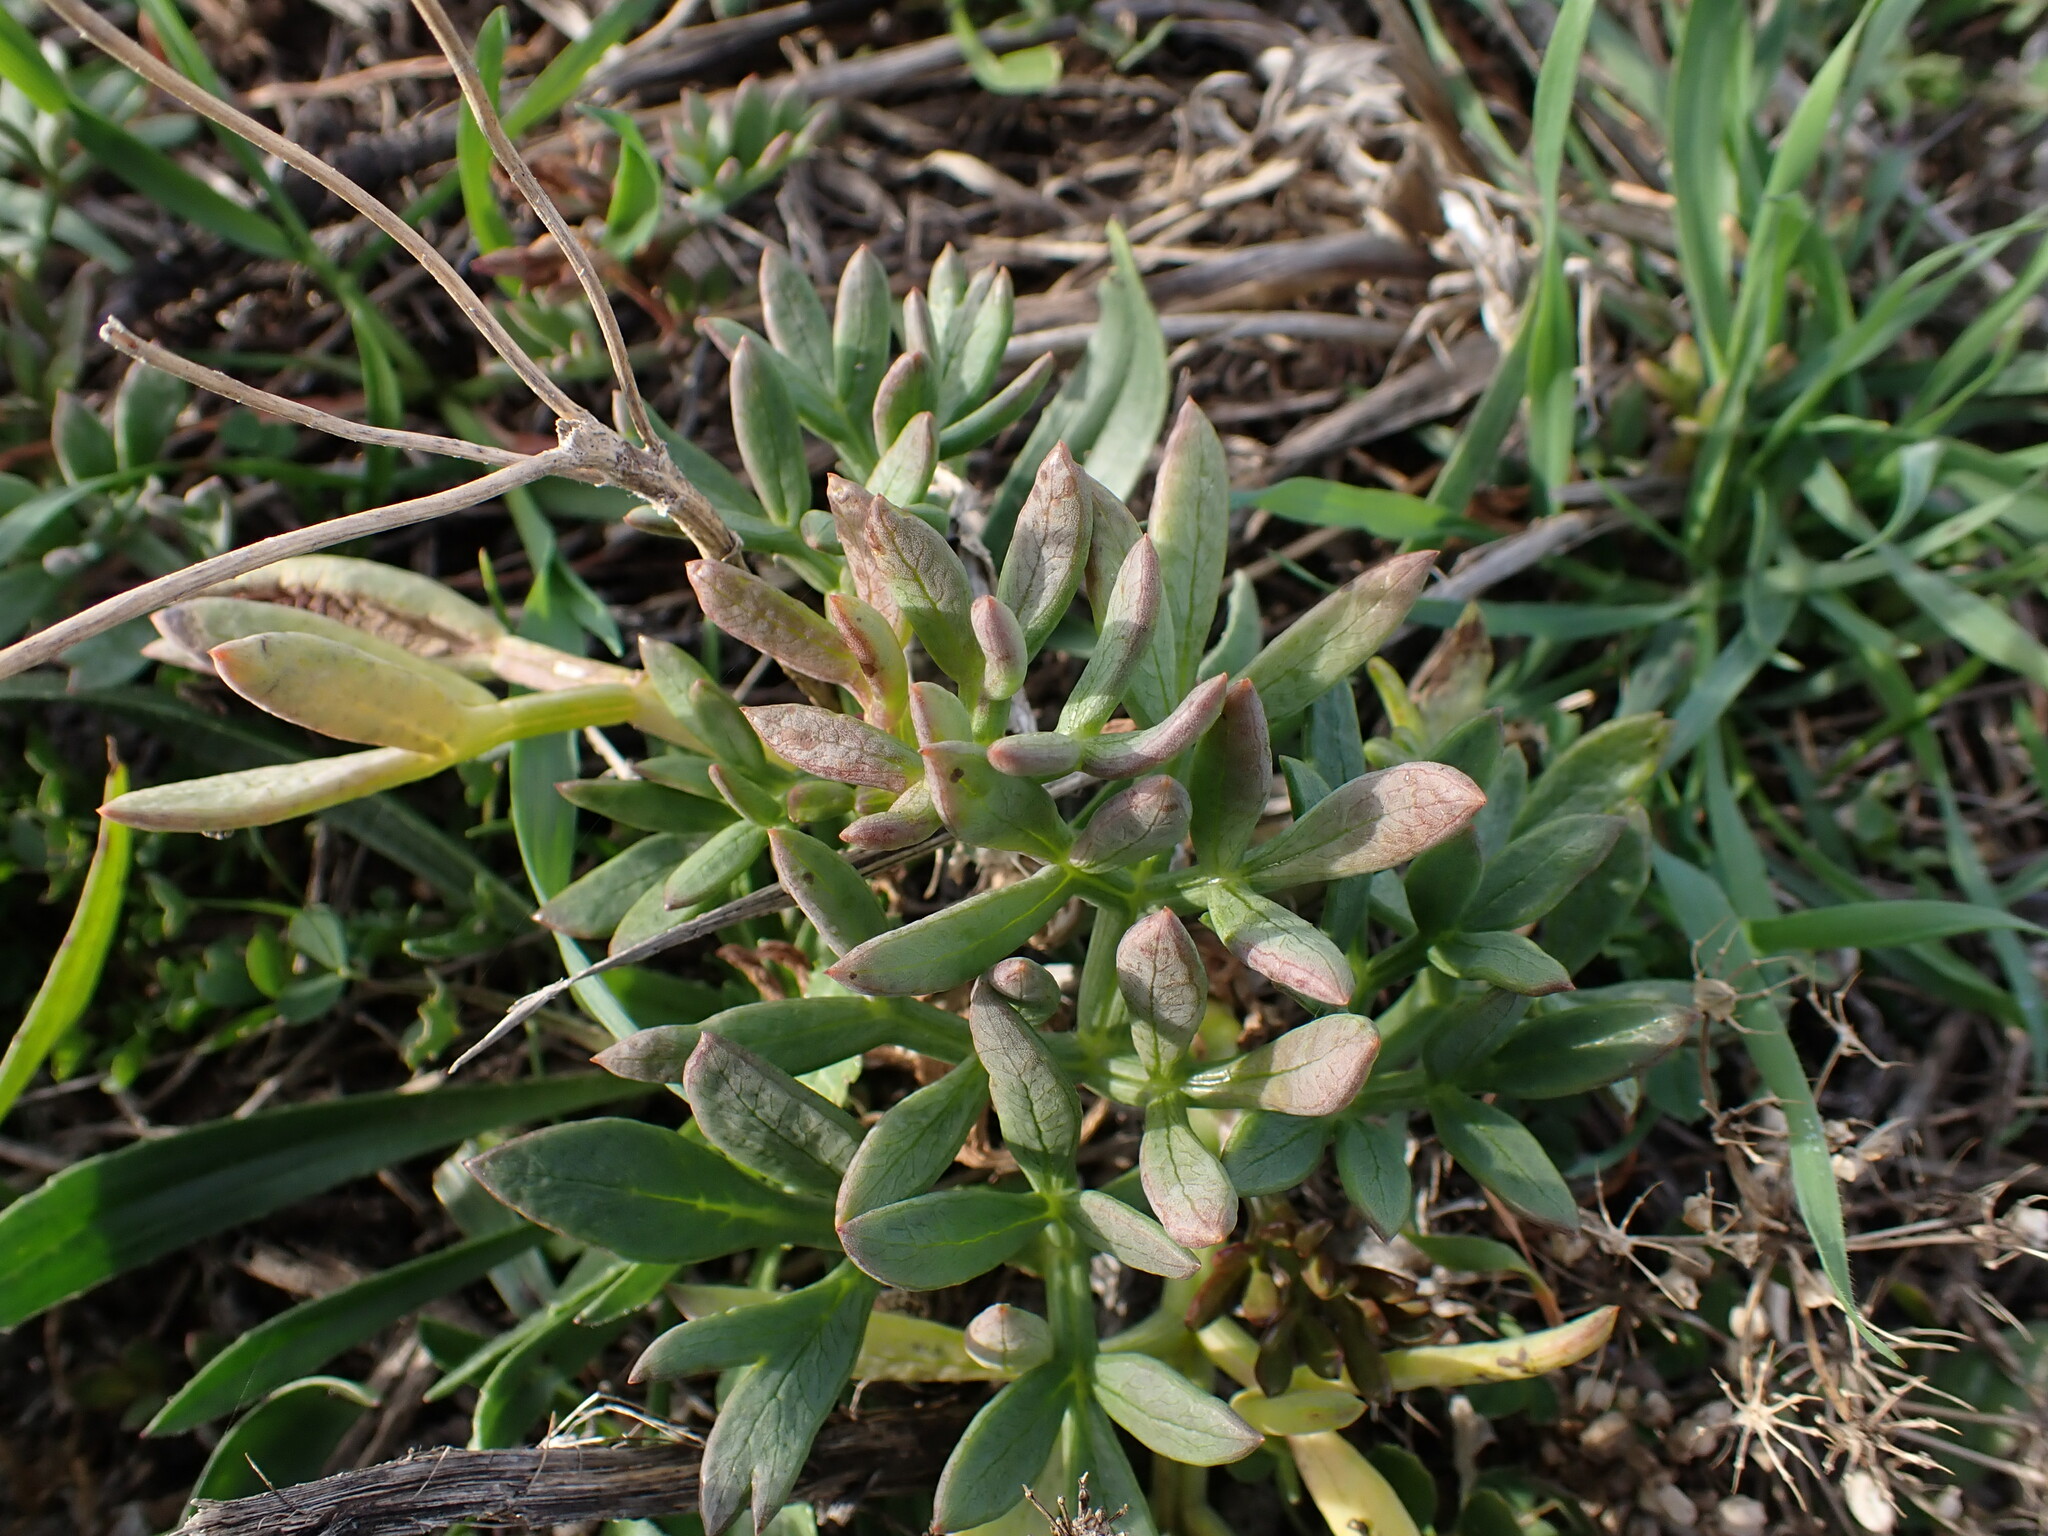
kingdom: Plantae
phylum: Tracheophyta
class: Magnoliopsida
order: Apiales
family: Apiaceae
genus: Crithmum
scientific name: Crithmum maritimum
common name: Rock samphire
